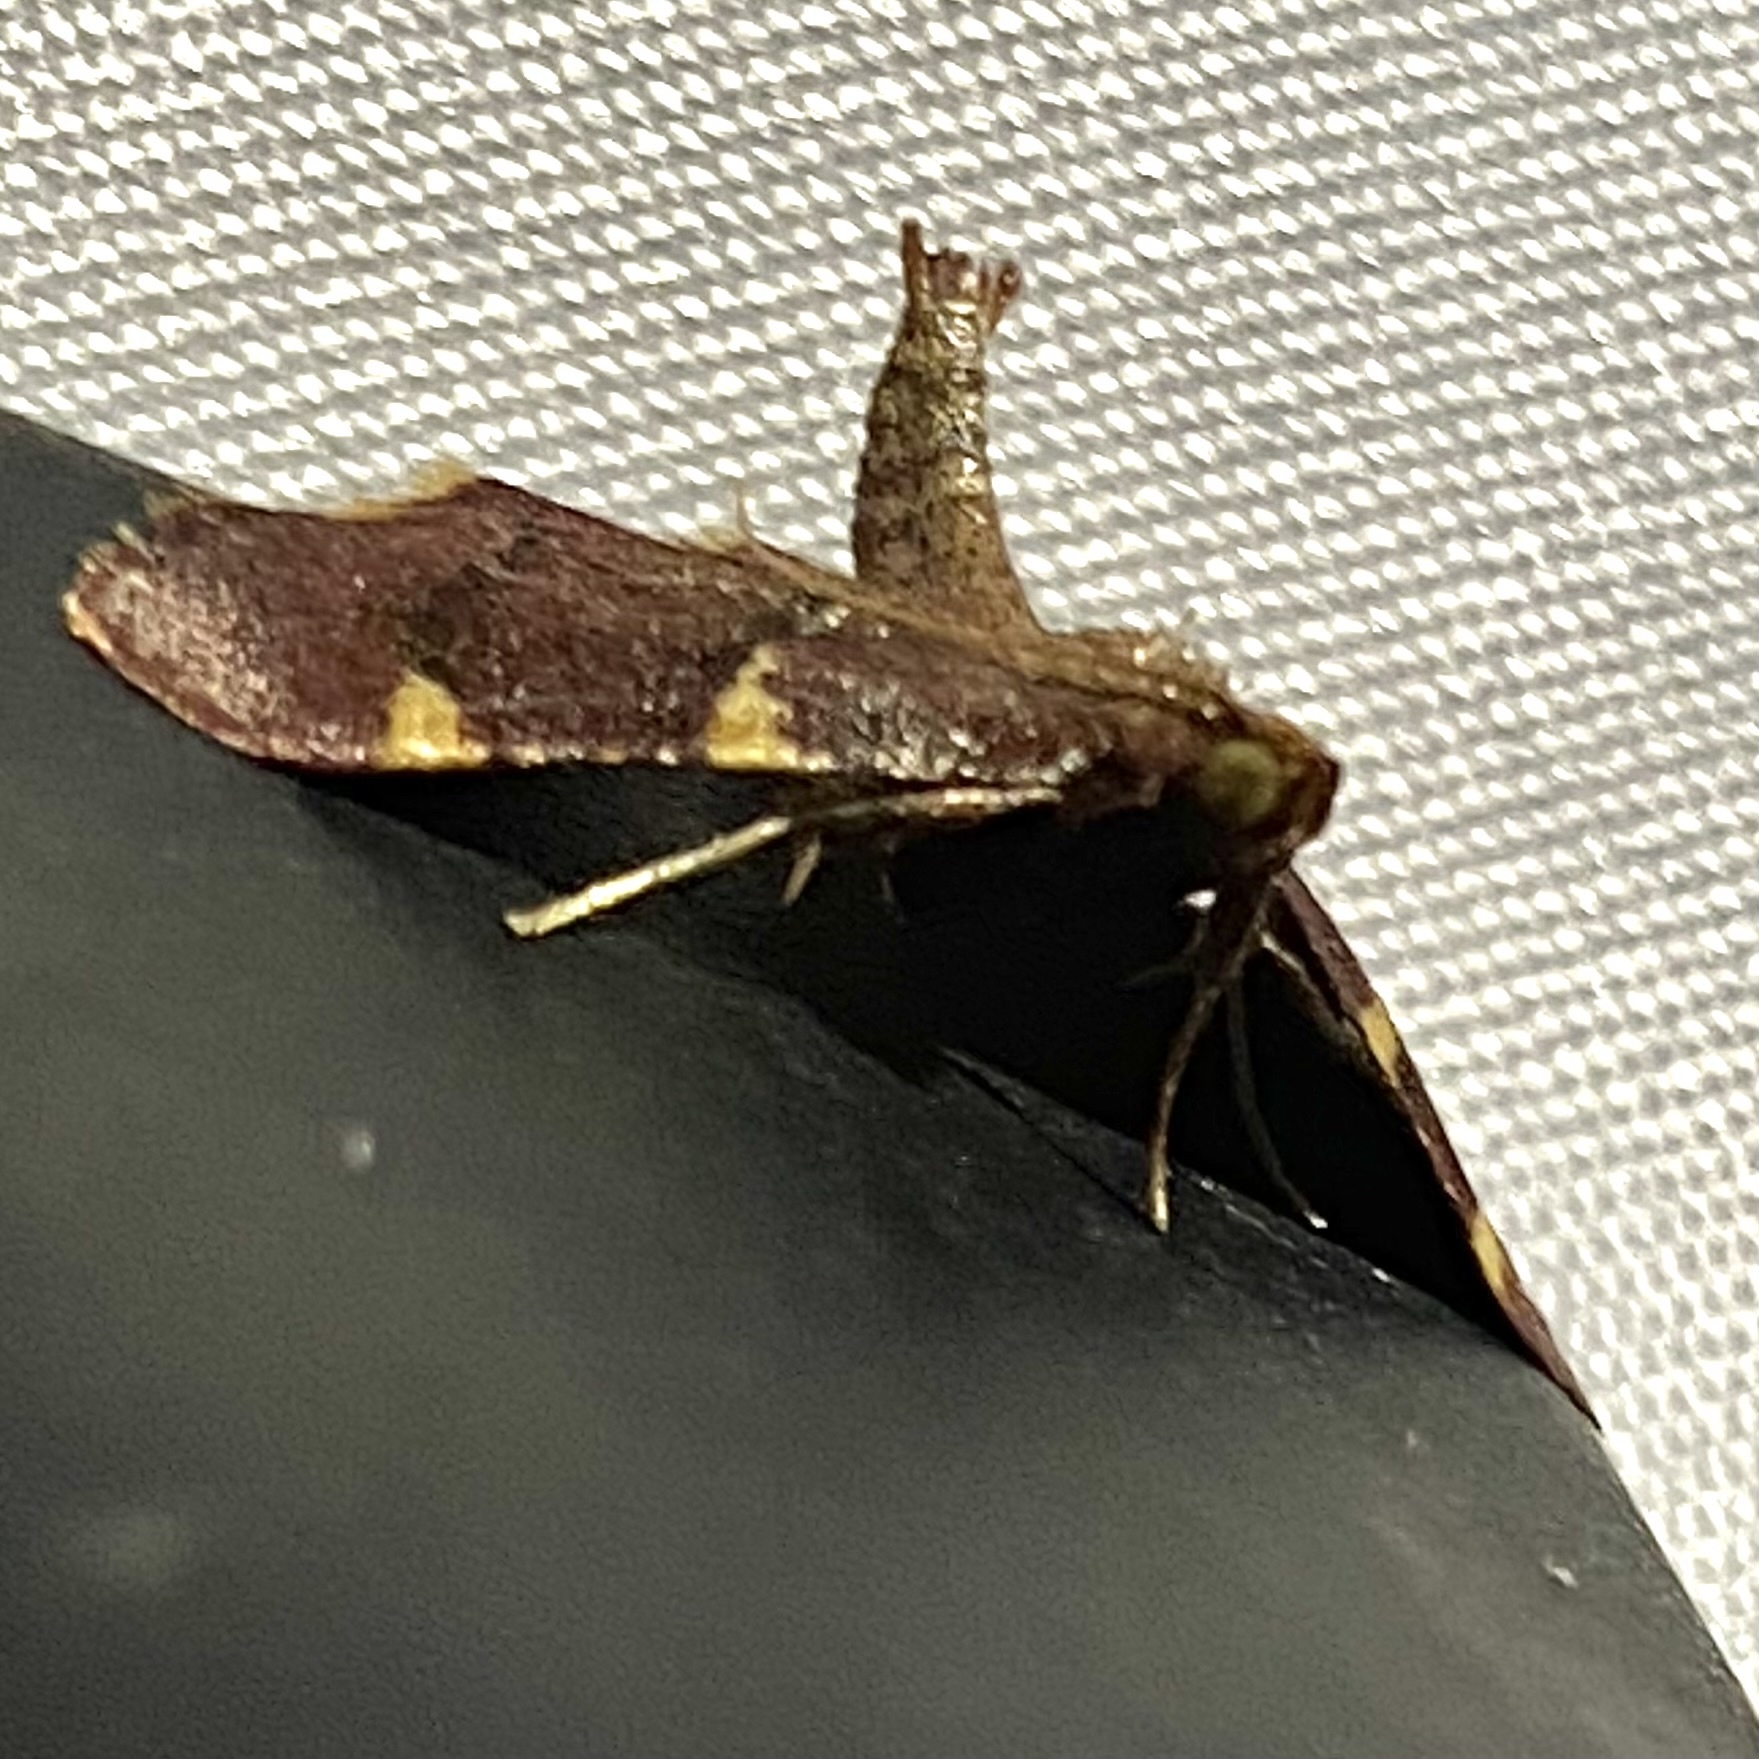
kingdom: Animalia
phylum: Arthropoda
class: Insecta
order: Lepidoptera
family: Pyralidae
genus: Hypsopygia
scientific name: Hypsopygia olinalis
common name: Yellow-fringed dolichomia moth
